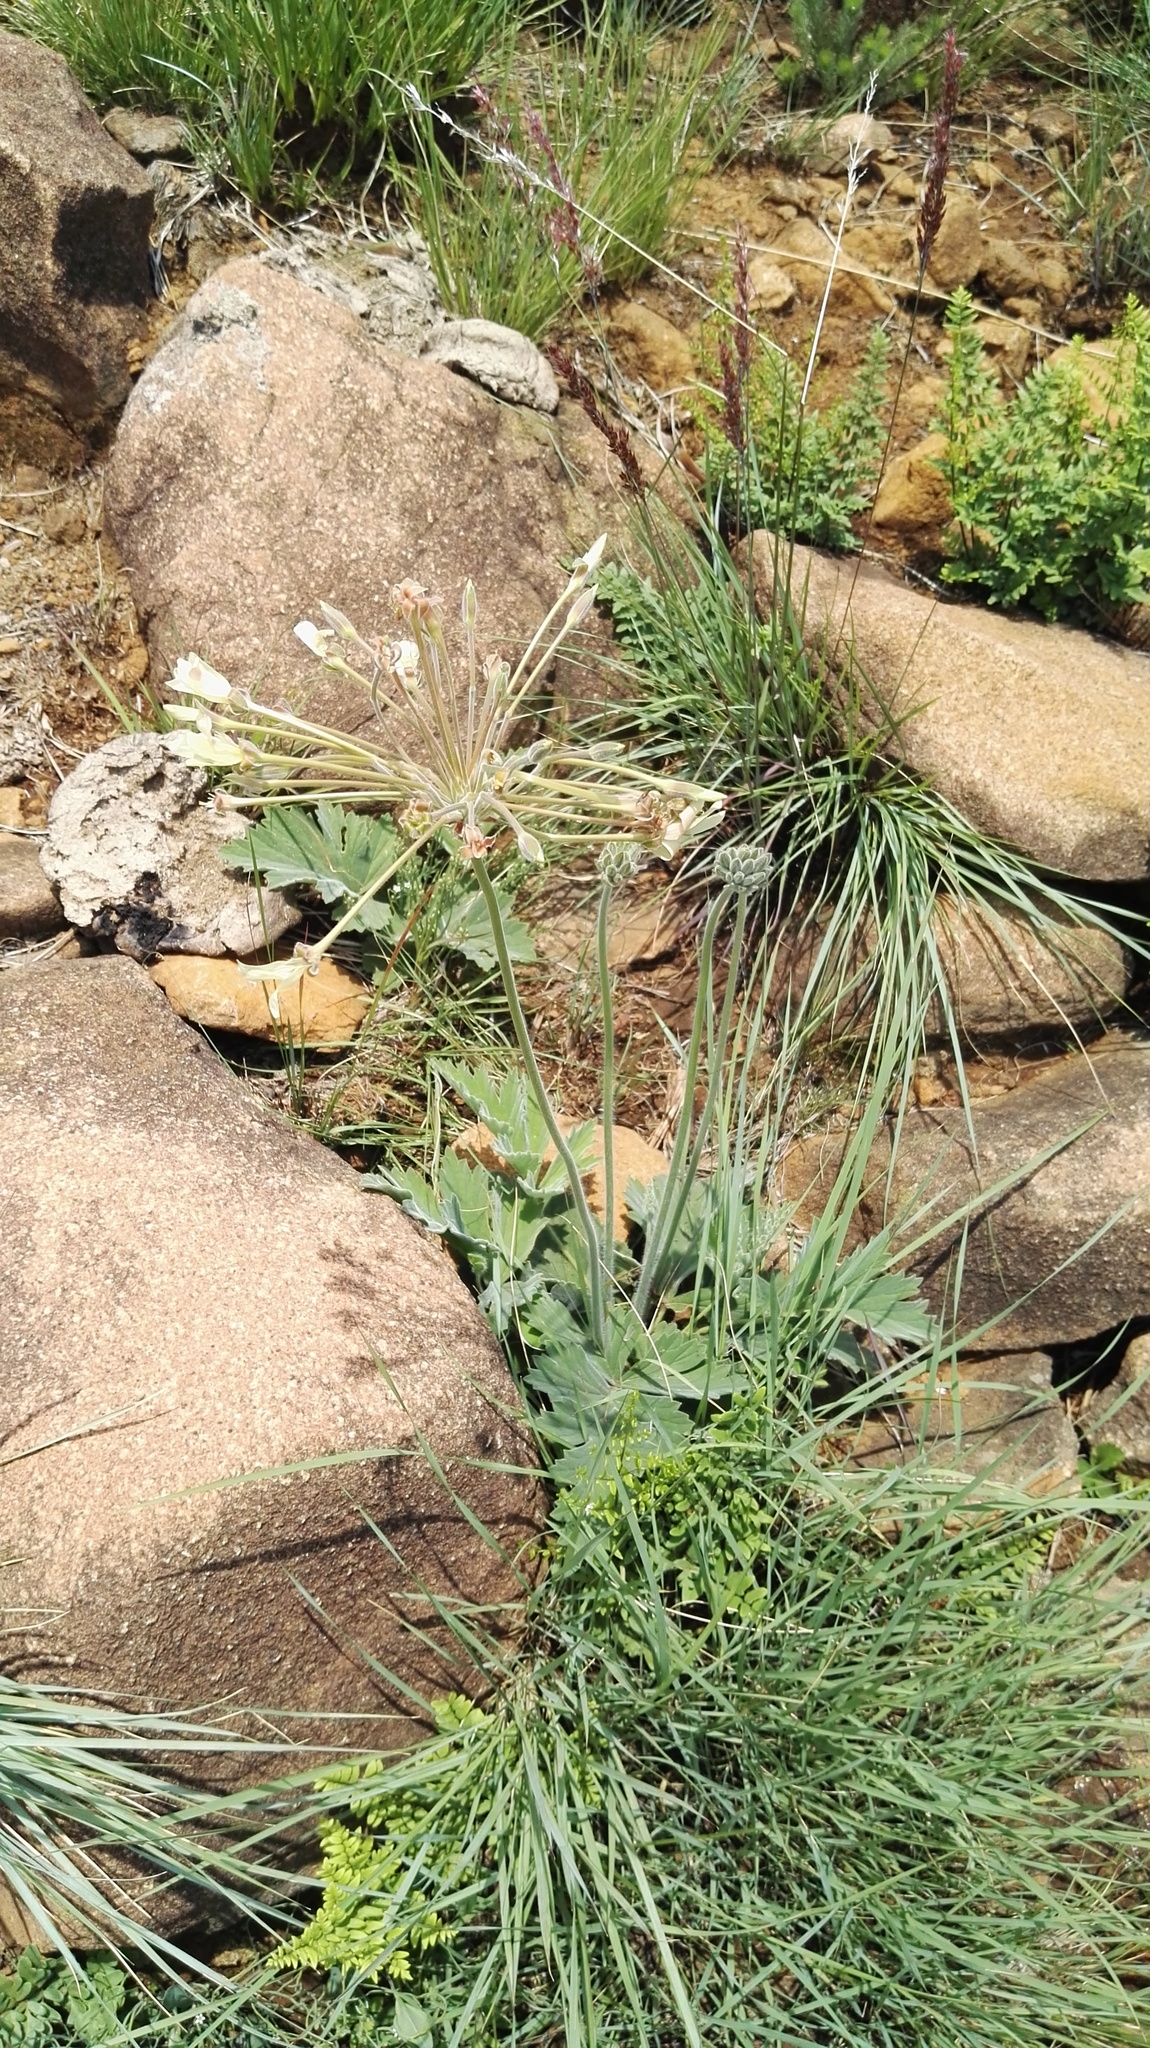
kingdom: Plantae
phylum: Tracheophyta
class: Magnoliopsida
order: Geraniales
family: Geraniaceae
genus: Pelargonium
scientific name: Pelargonium luridum
